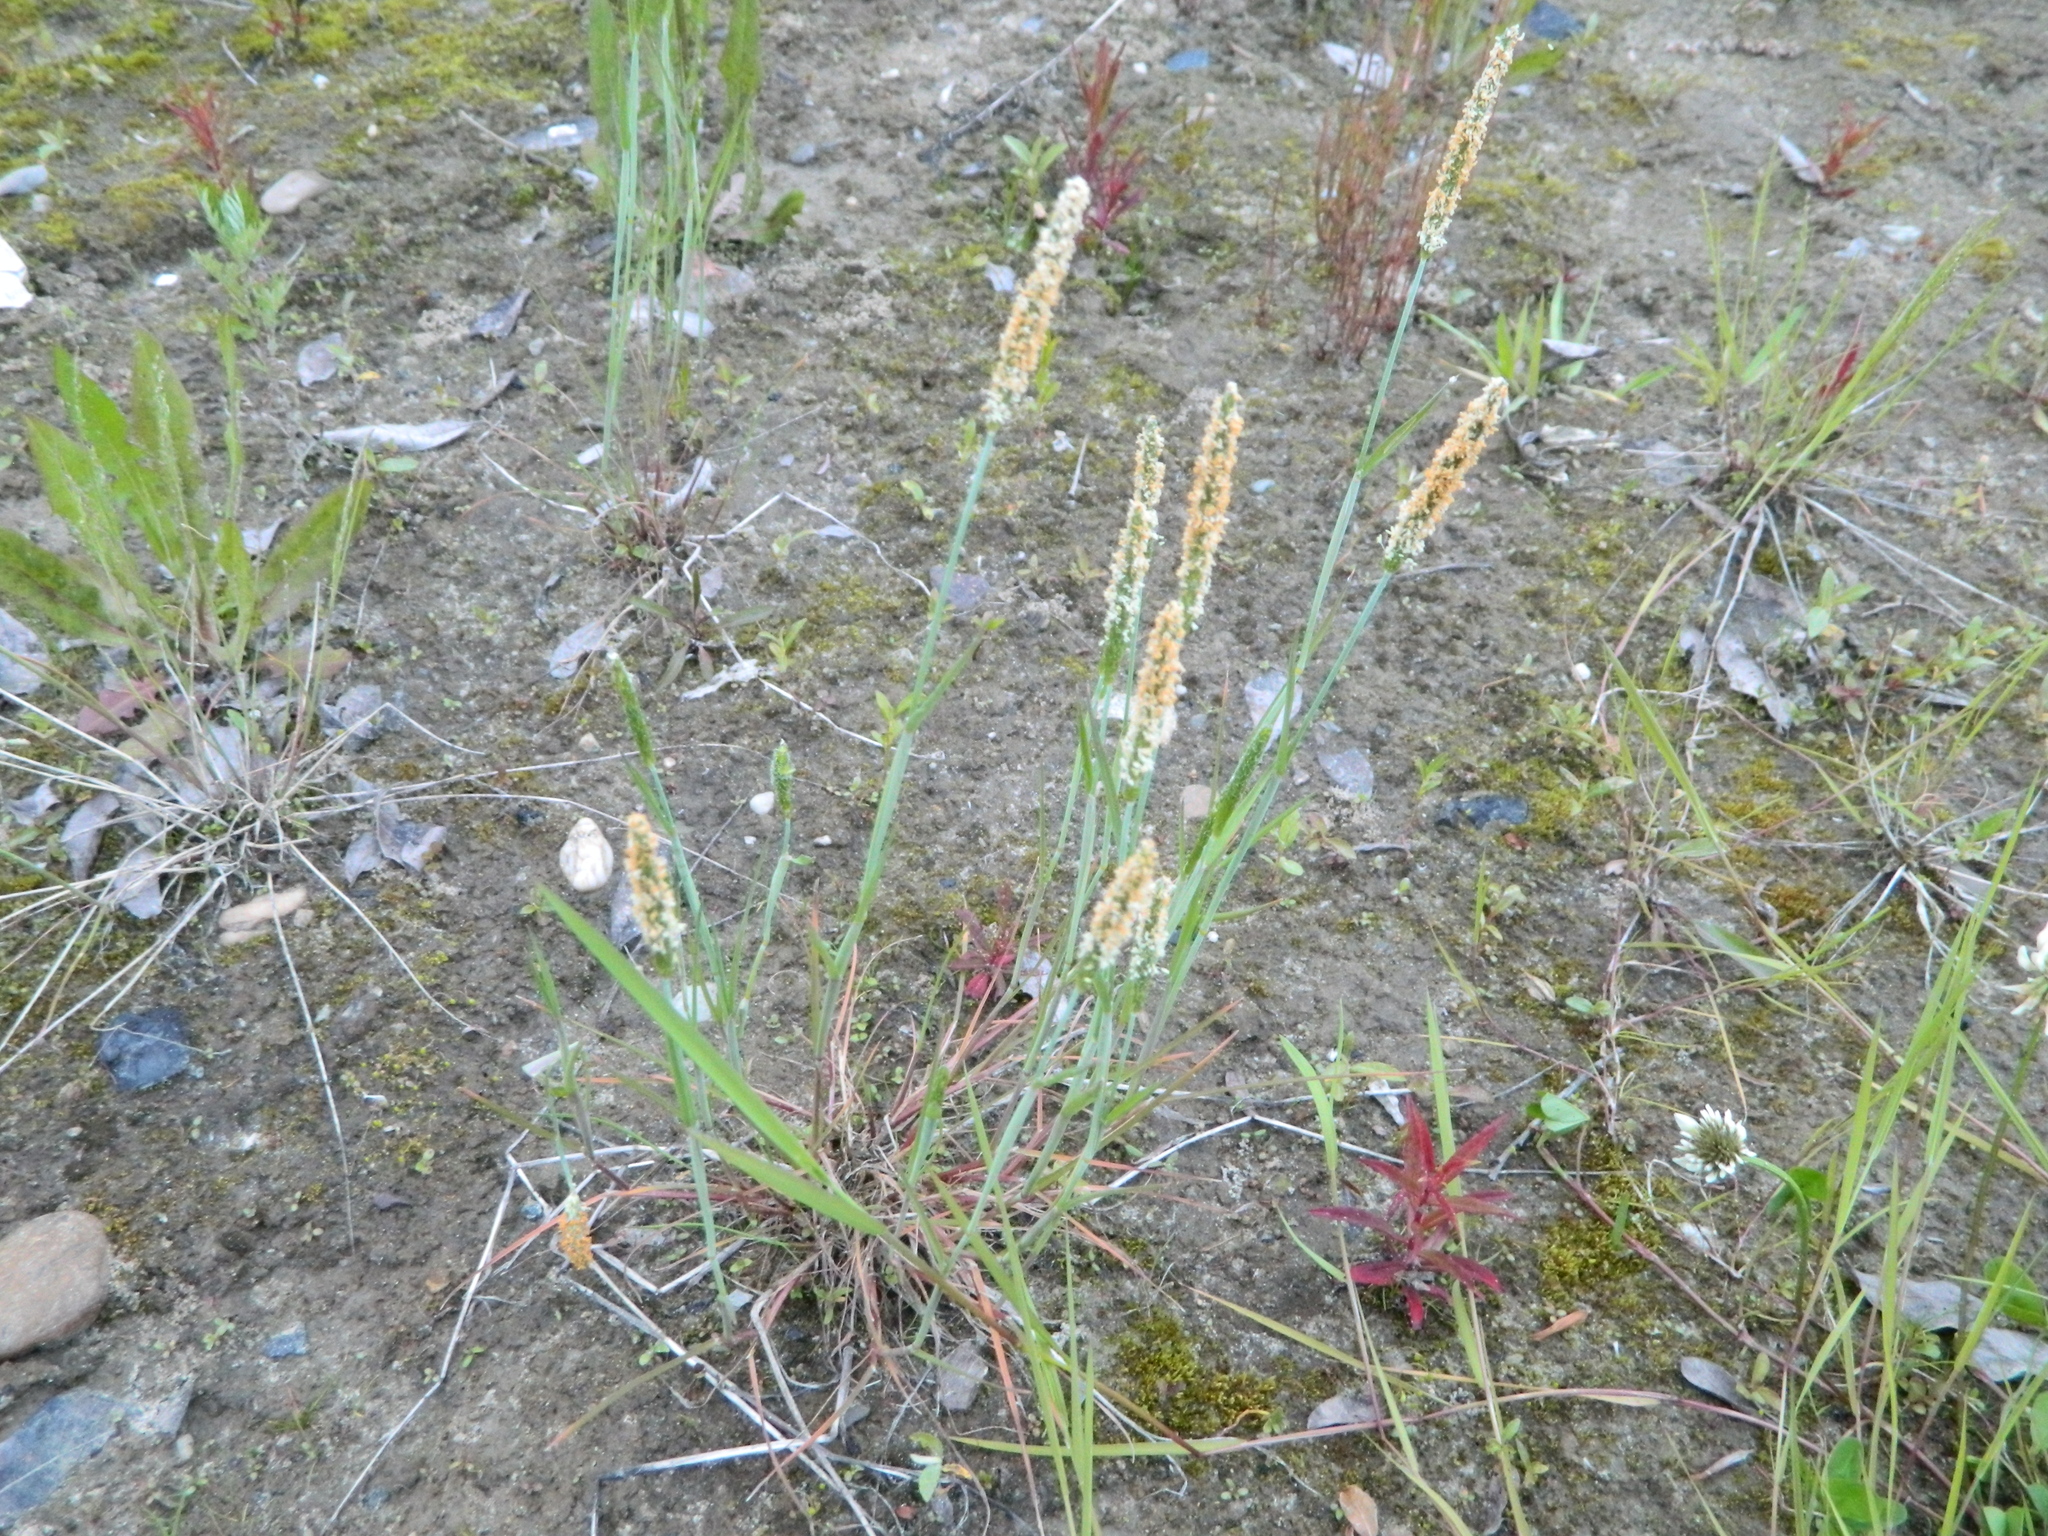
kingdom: Plantae
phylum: Tracheophyta
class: Liliopsida
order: Poales
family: Poaceae
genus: Alopecurus
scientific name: Alopecurus aequalis
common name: Orange foxtail
